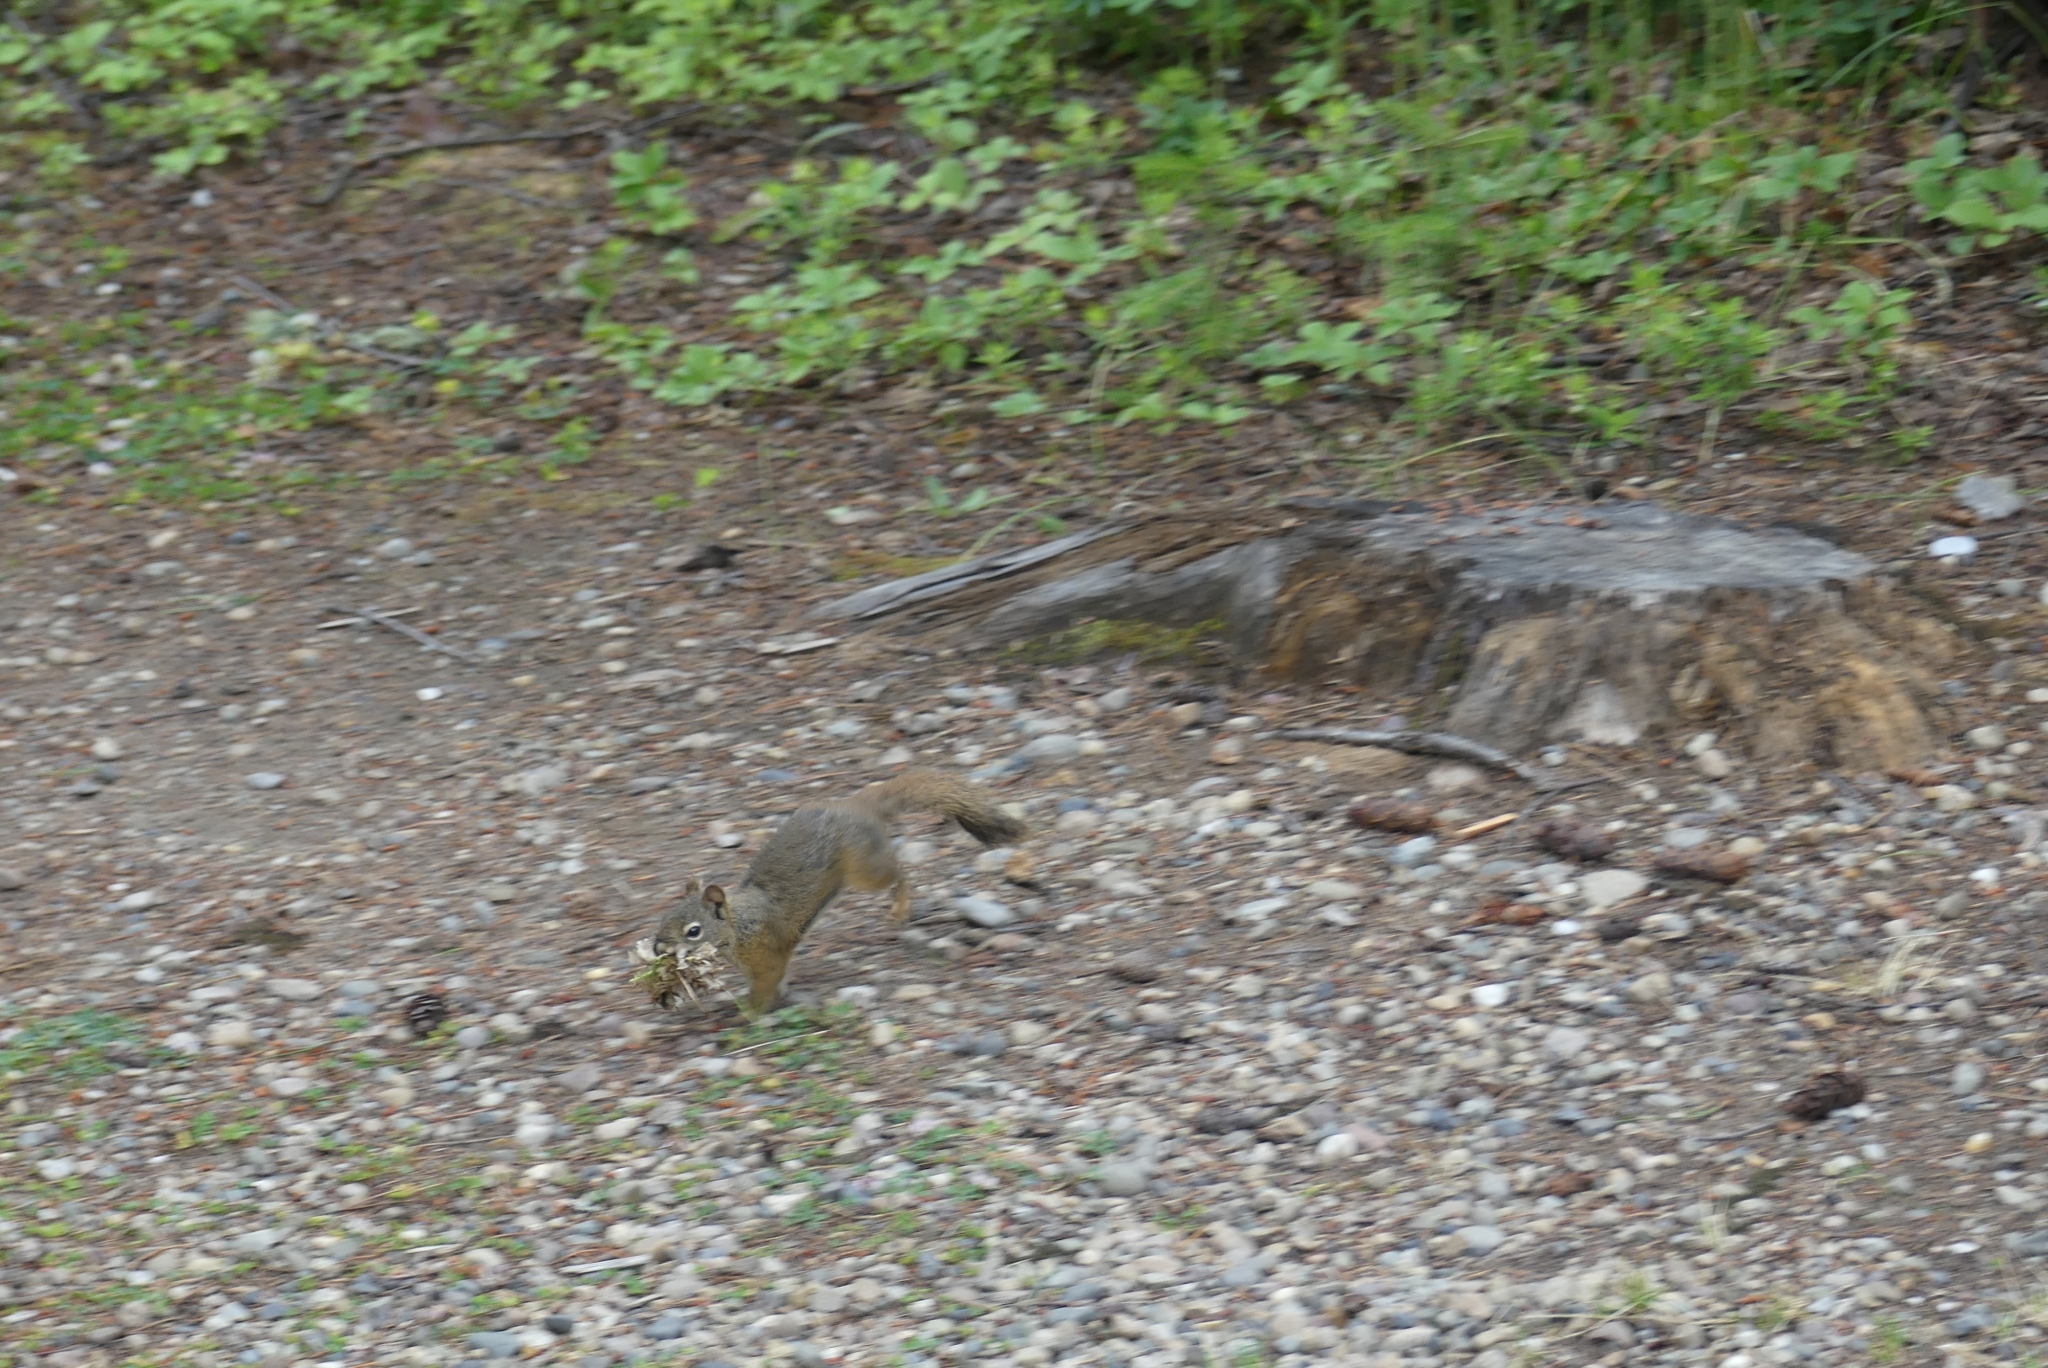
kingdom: Animalia
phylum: Chordata
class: Mammalia
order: Rodentia
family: Sciuridae
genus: Tamiasciurus
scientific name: Tamiasciurus hudsonicus
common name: Red squirrel
